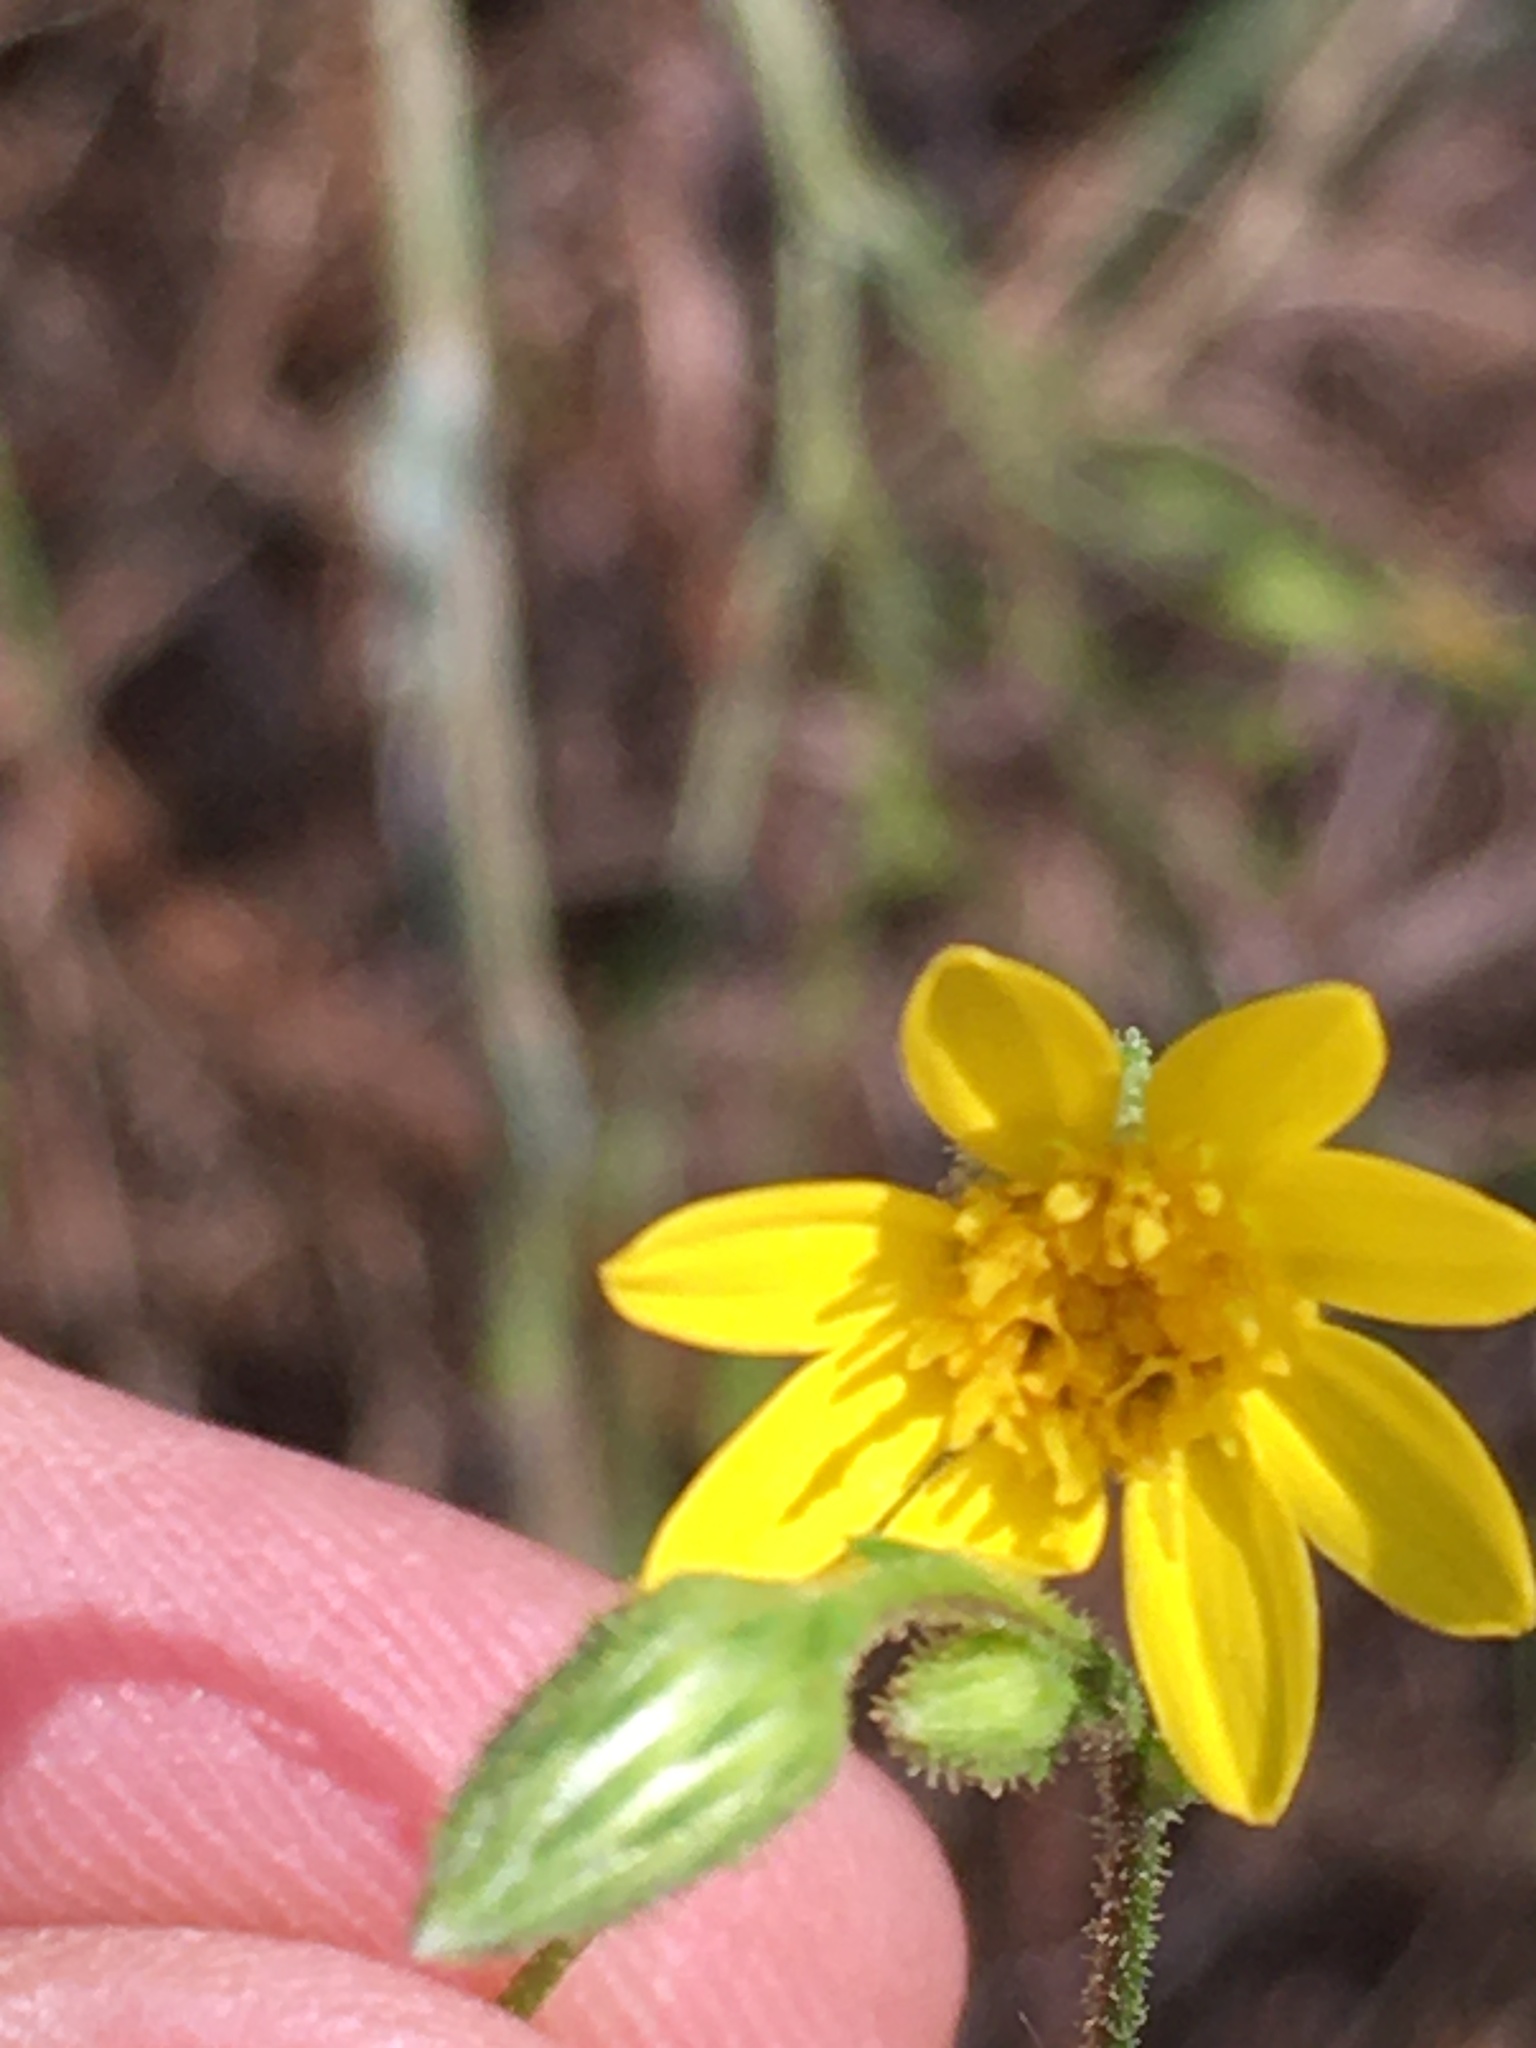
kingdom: Plantae
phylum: Tracheophyta
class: Magnoliopsida
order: Asterales
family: Asteraceae
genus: Pityopsis
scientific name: Pityopsis aspera
